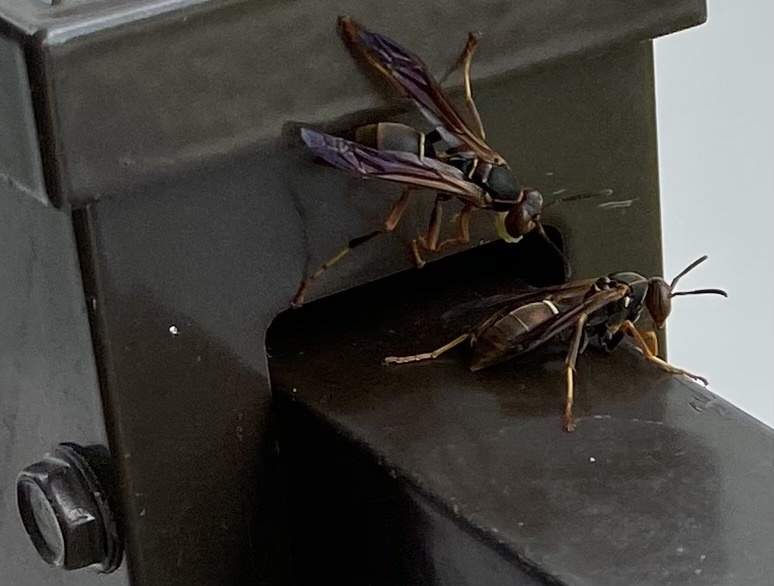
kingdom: Animalia
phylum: Arthropoda
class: Insecta
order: Hymenoptera
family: Eumenidae
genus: Polistes
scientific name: Polistes fuscatus
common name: Dark paper wasp
